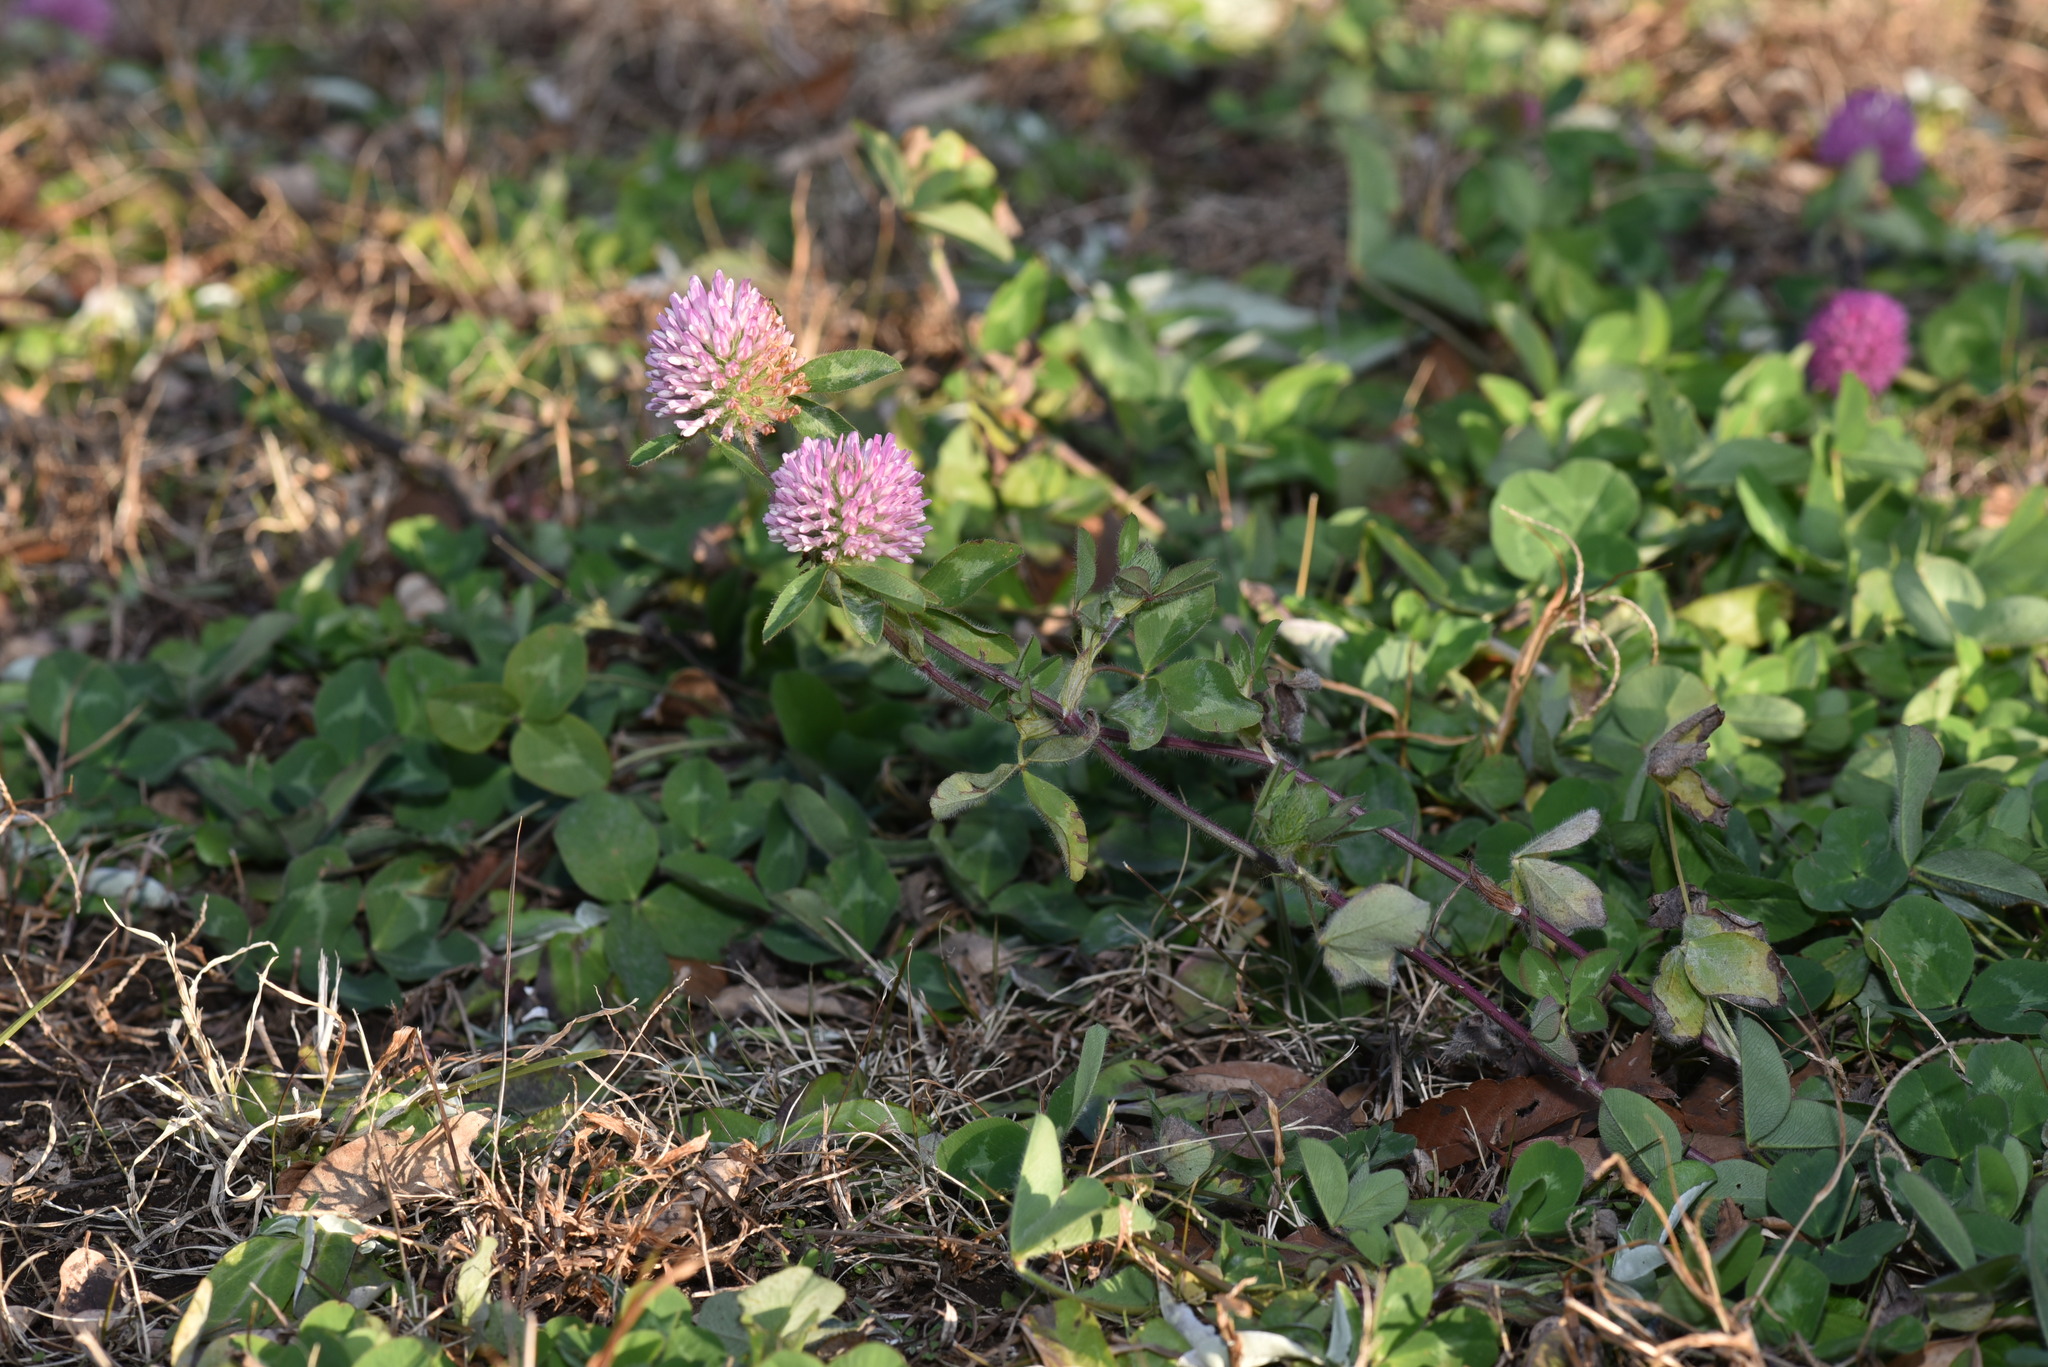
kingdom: Plantae
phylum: Tracheophyta
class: Magnoliopsida
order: Fabales
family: Fabaceae
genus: Trifolium
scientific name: Trifolium pratense
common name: Red clover
